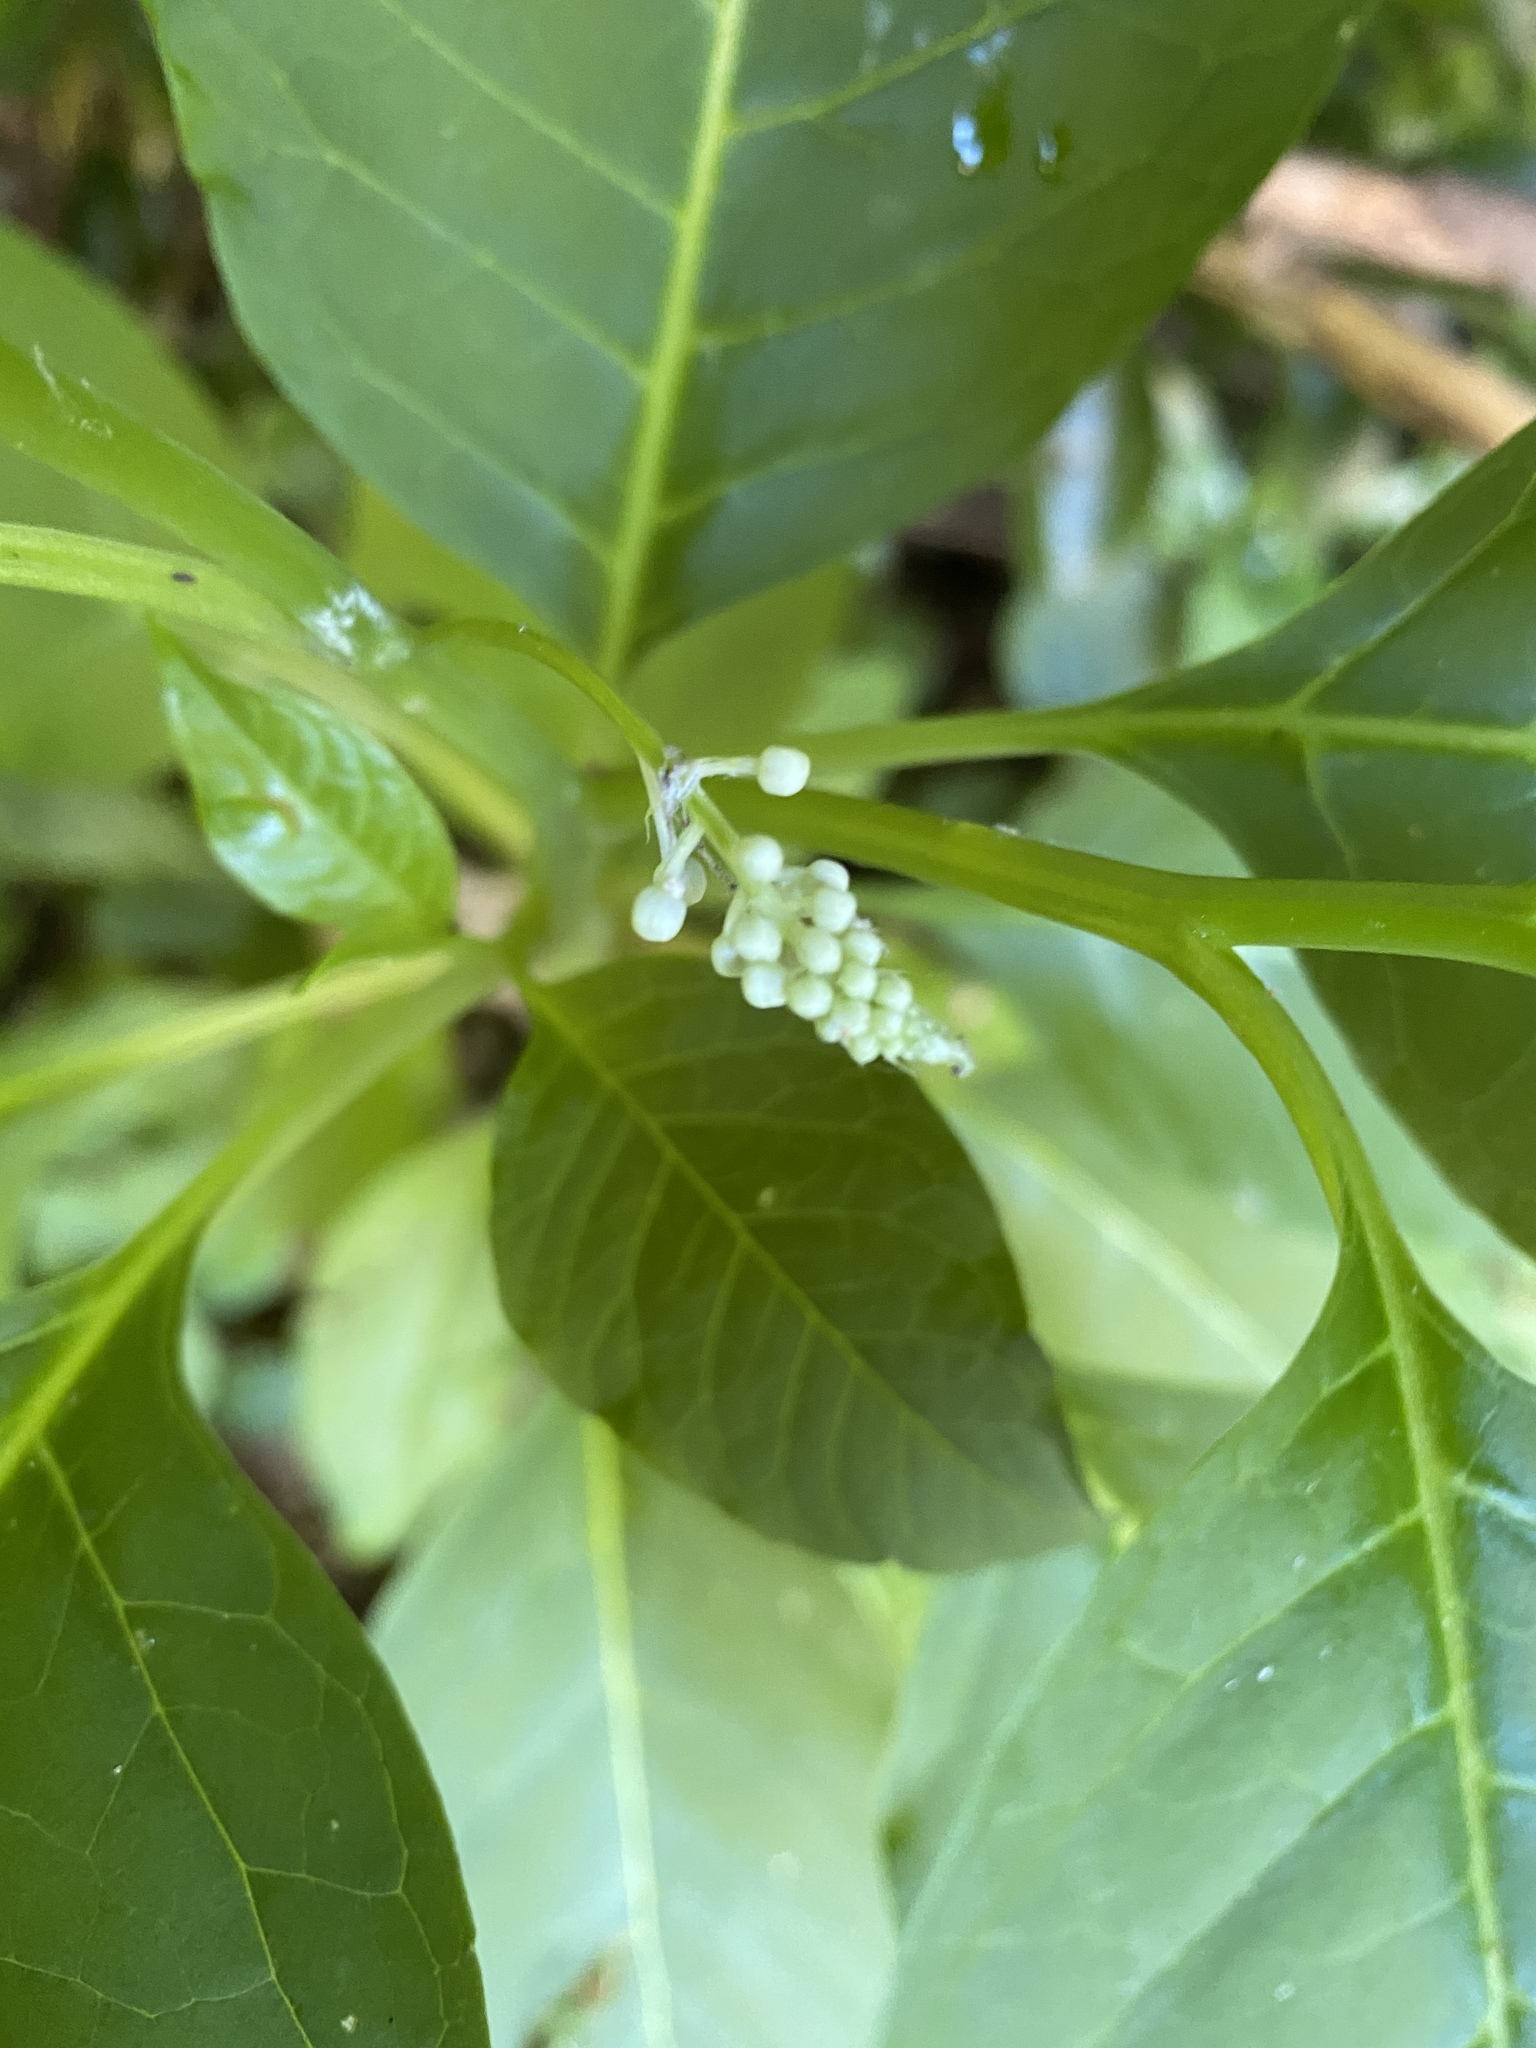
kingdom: Plantae
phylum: Tracheophyta
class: Magnoliopsida
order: Caryophyllales
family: Phytolaccaceae
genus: Phytolacca
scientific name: Phytolacca americana
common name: American pokeweed
